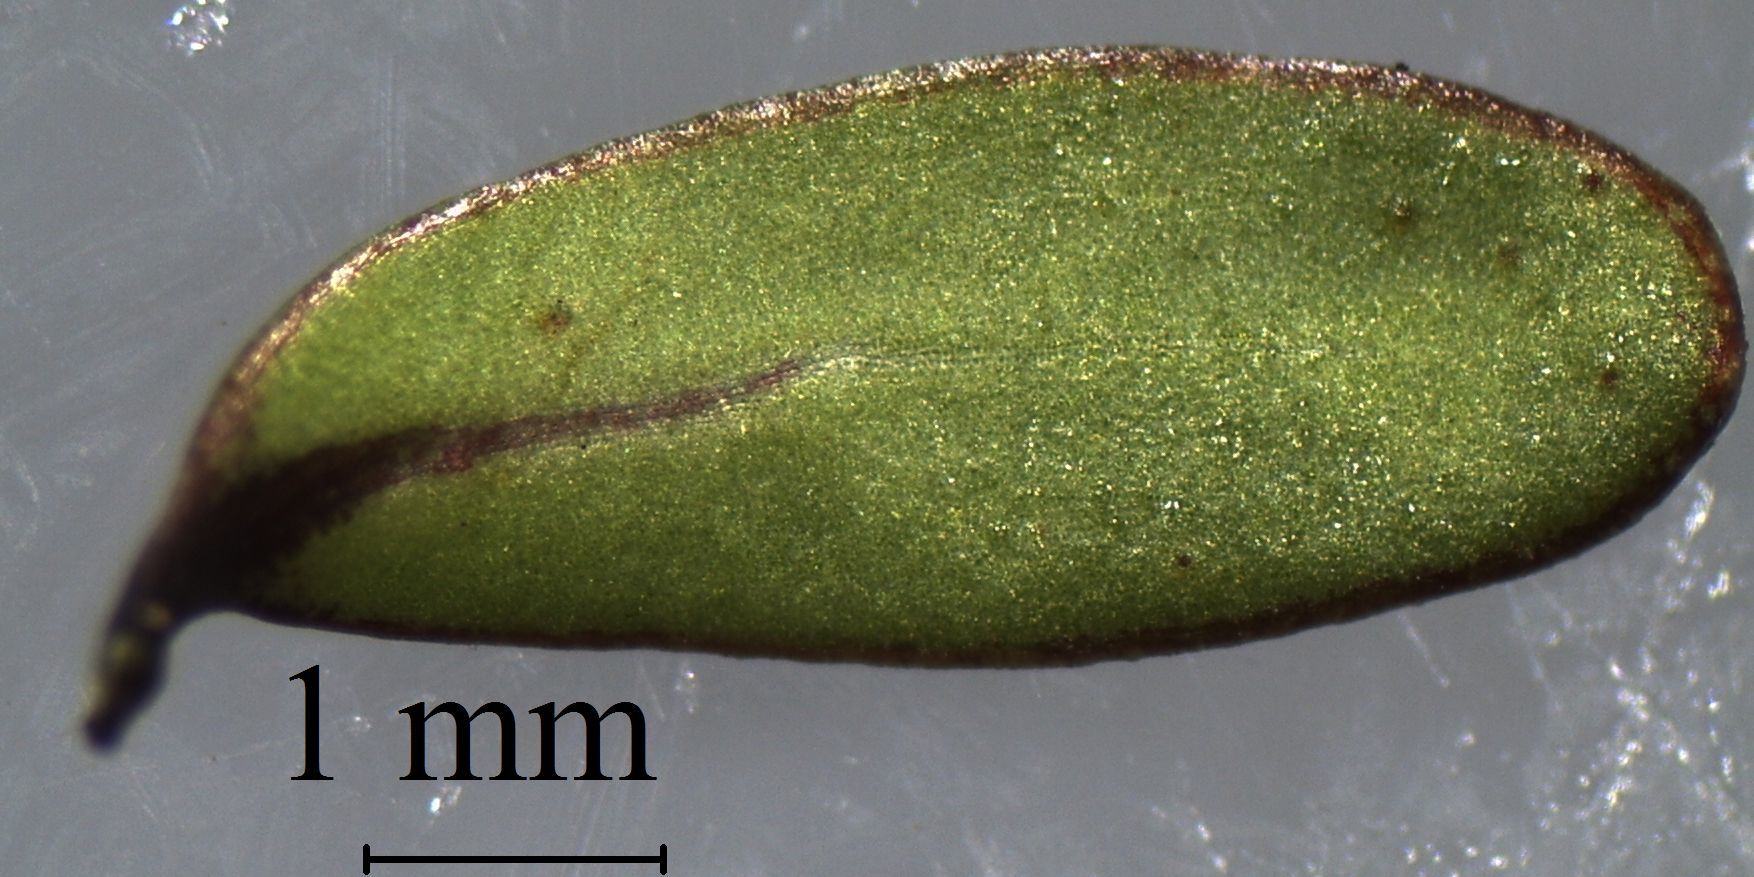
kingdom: Plantae
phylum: Tracheophyta
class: Magnoliopsida
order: Gentianales
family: Rubiaceae
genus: Coprosma
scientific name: Coprosma dumosa
